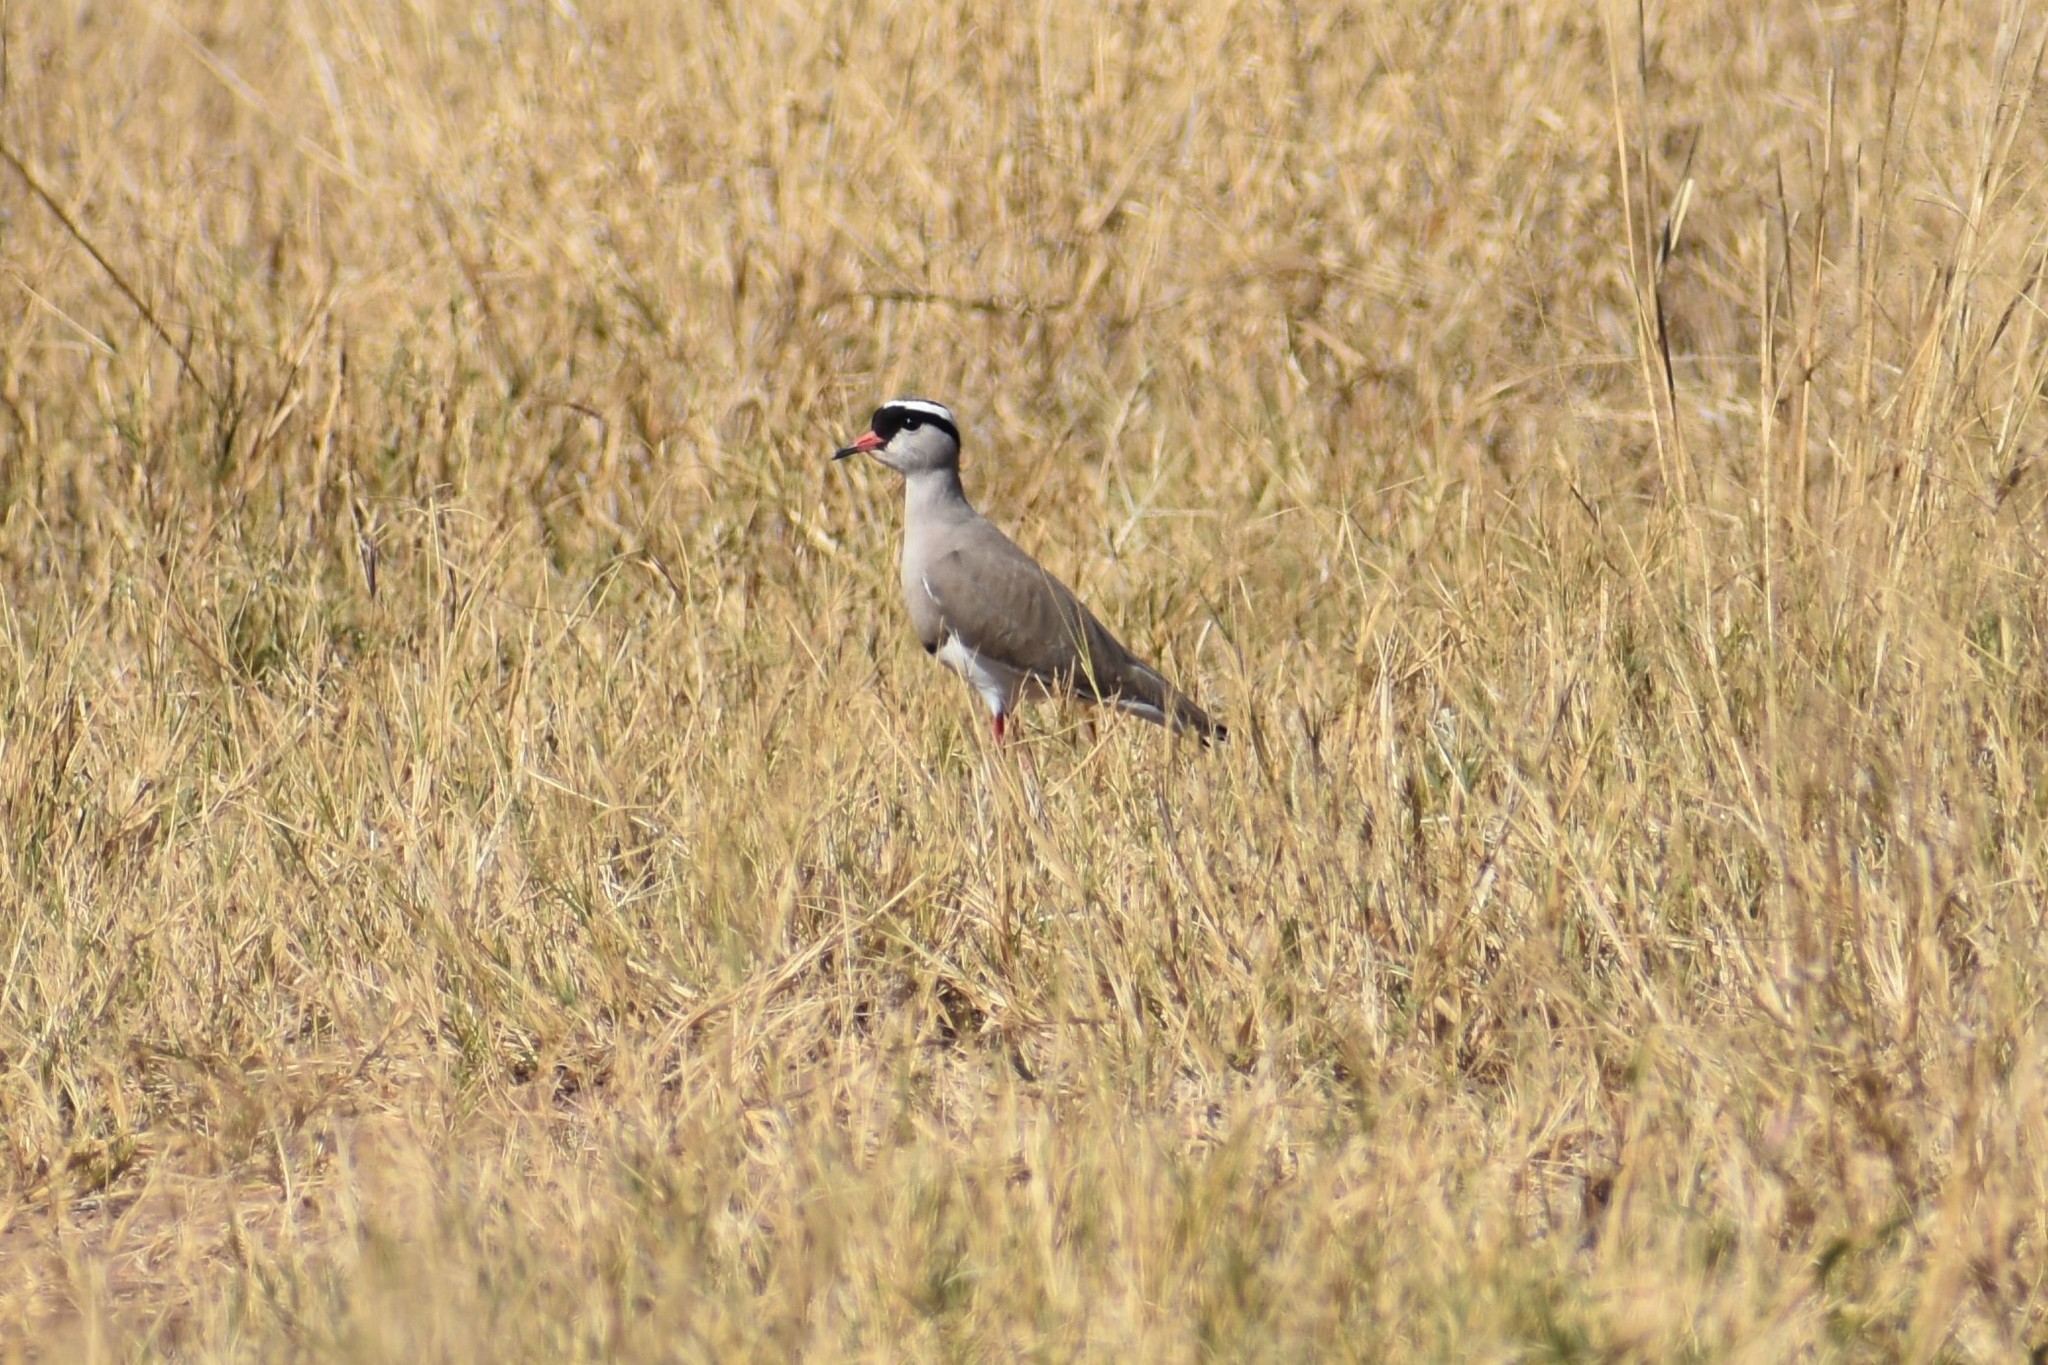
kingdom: Animalia
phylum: Chordata
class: Aves
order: Charadriiformes
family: Charadriidae
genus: Vanellus
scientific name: Vanellus coronatus
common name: Crowned lapwing
